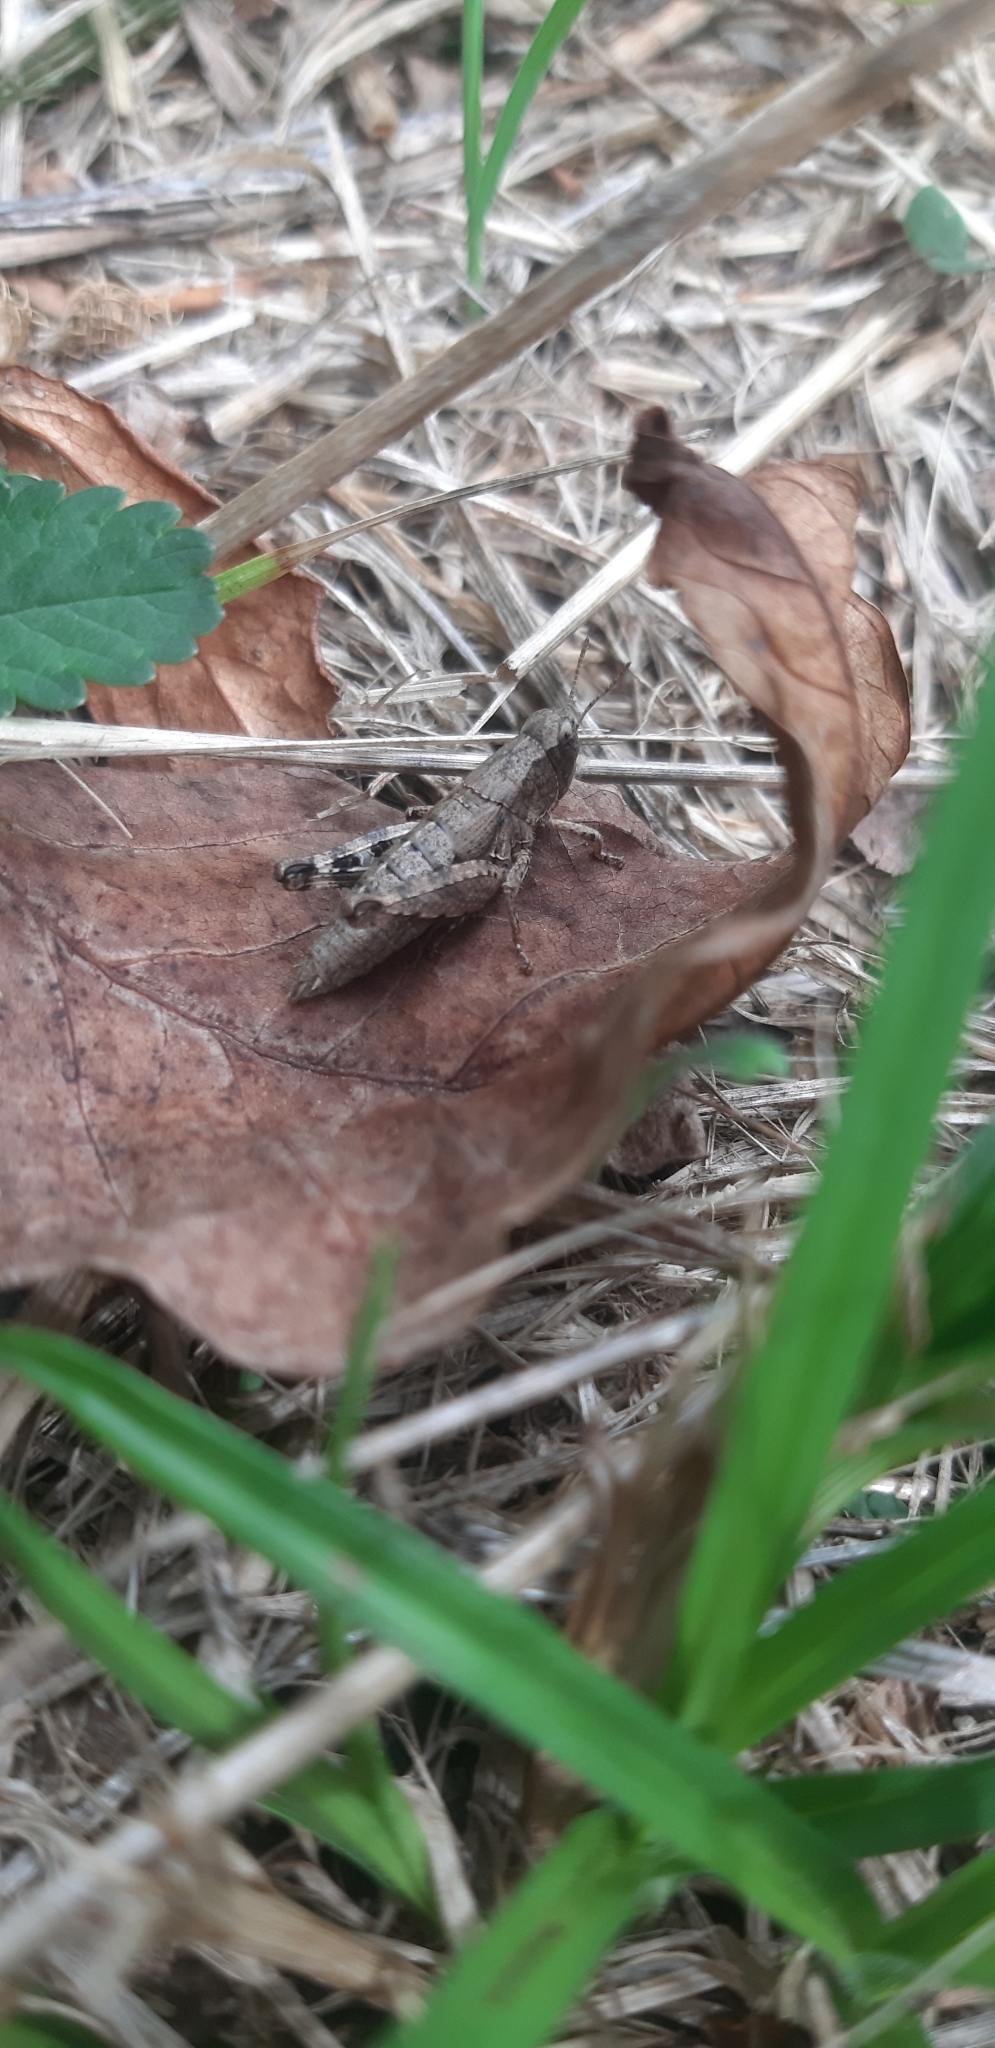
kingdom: Animalia
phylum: Arthropoda
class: Insecta
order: Orthoptera
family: Acrididae
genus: Pezotettix
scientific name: Pezotettix giornae
